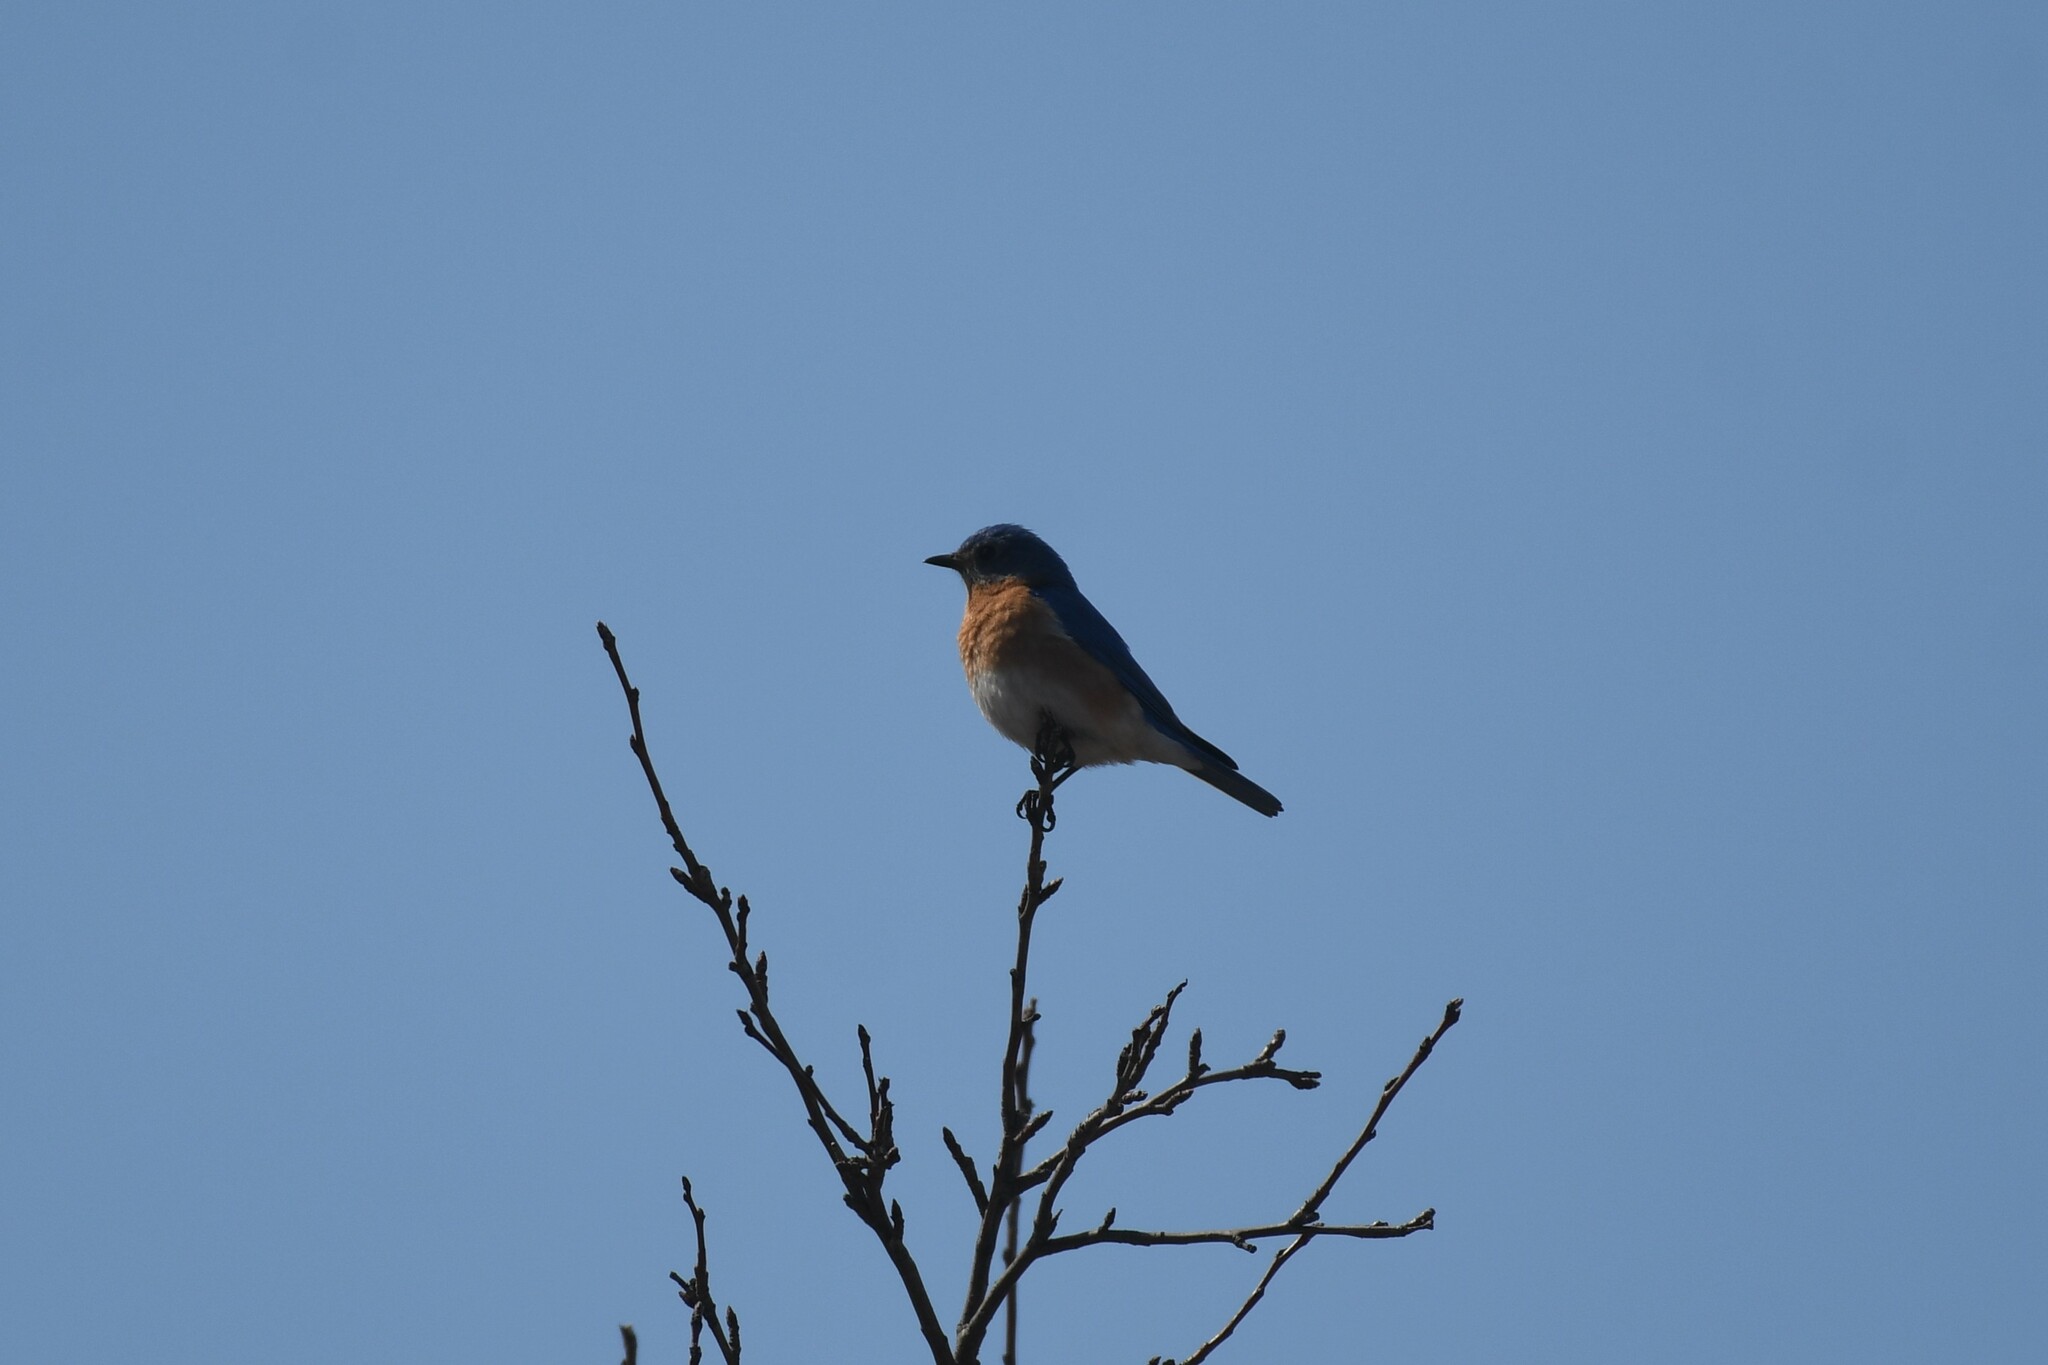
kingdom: Animalia
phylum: Chordata
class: Aves
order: Passeriformes
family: Turdidae
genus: Sialia
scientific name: Sialia sialis
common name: Eastern bluebird
